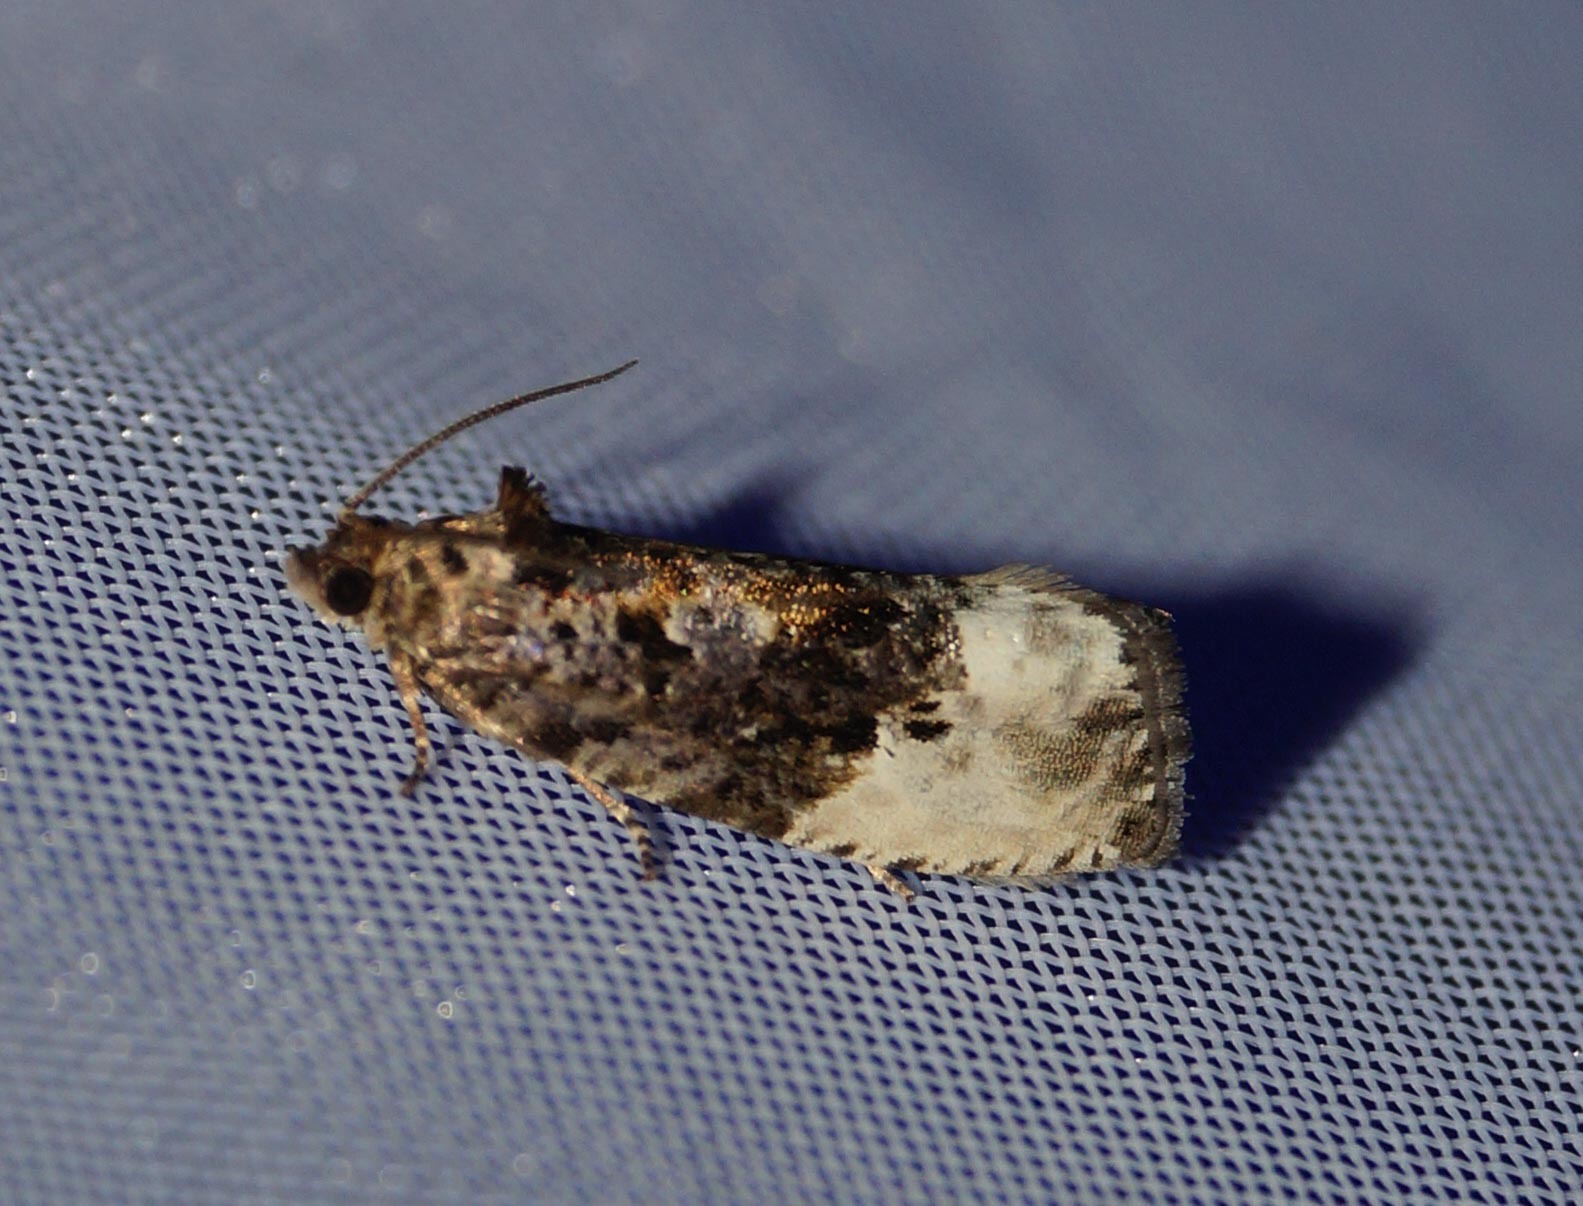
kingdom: Animalia
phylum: Arthropoda
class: Insecta
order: Lepidoptera
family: Tortricidae
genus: Hedya
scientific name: Hedya nubiferana
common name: Marbled orchard tortrix
